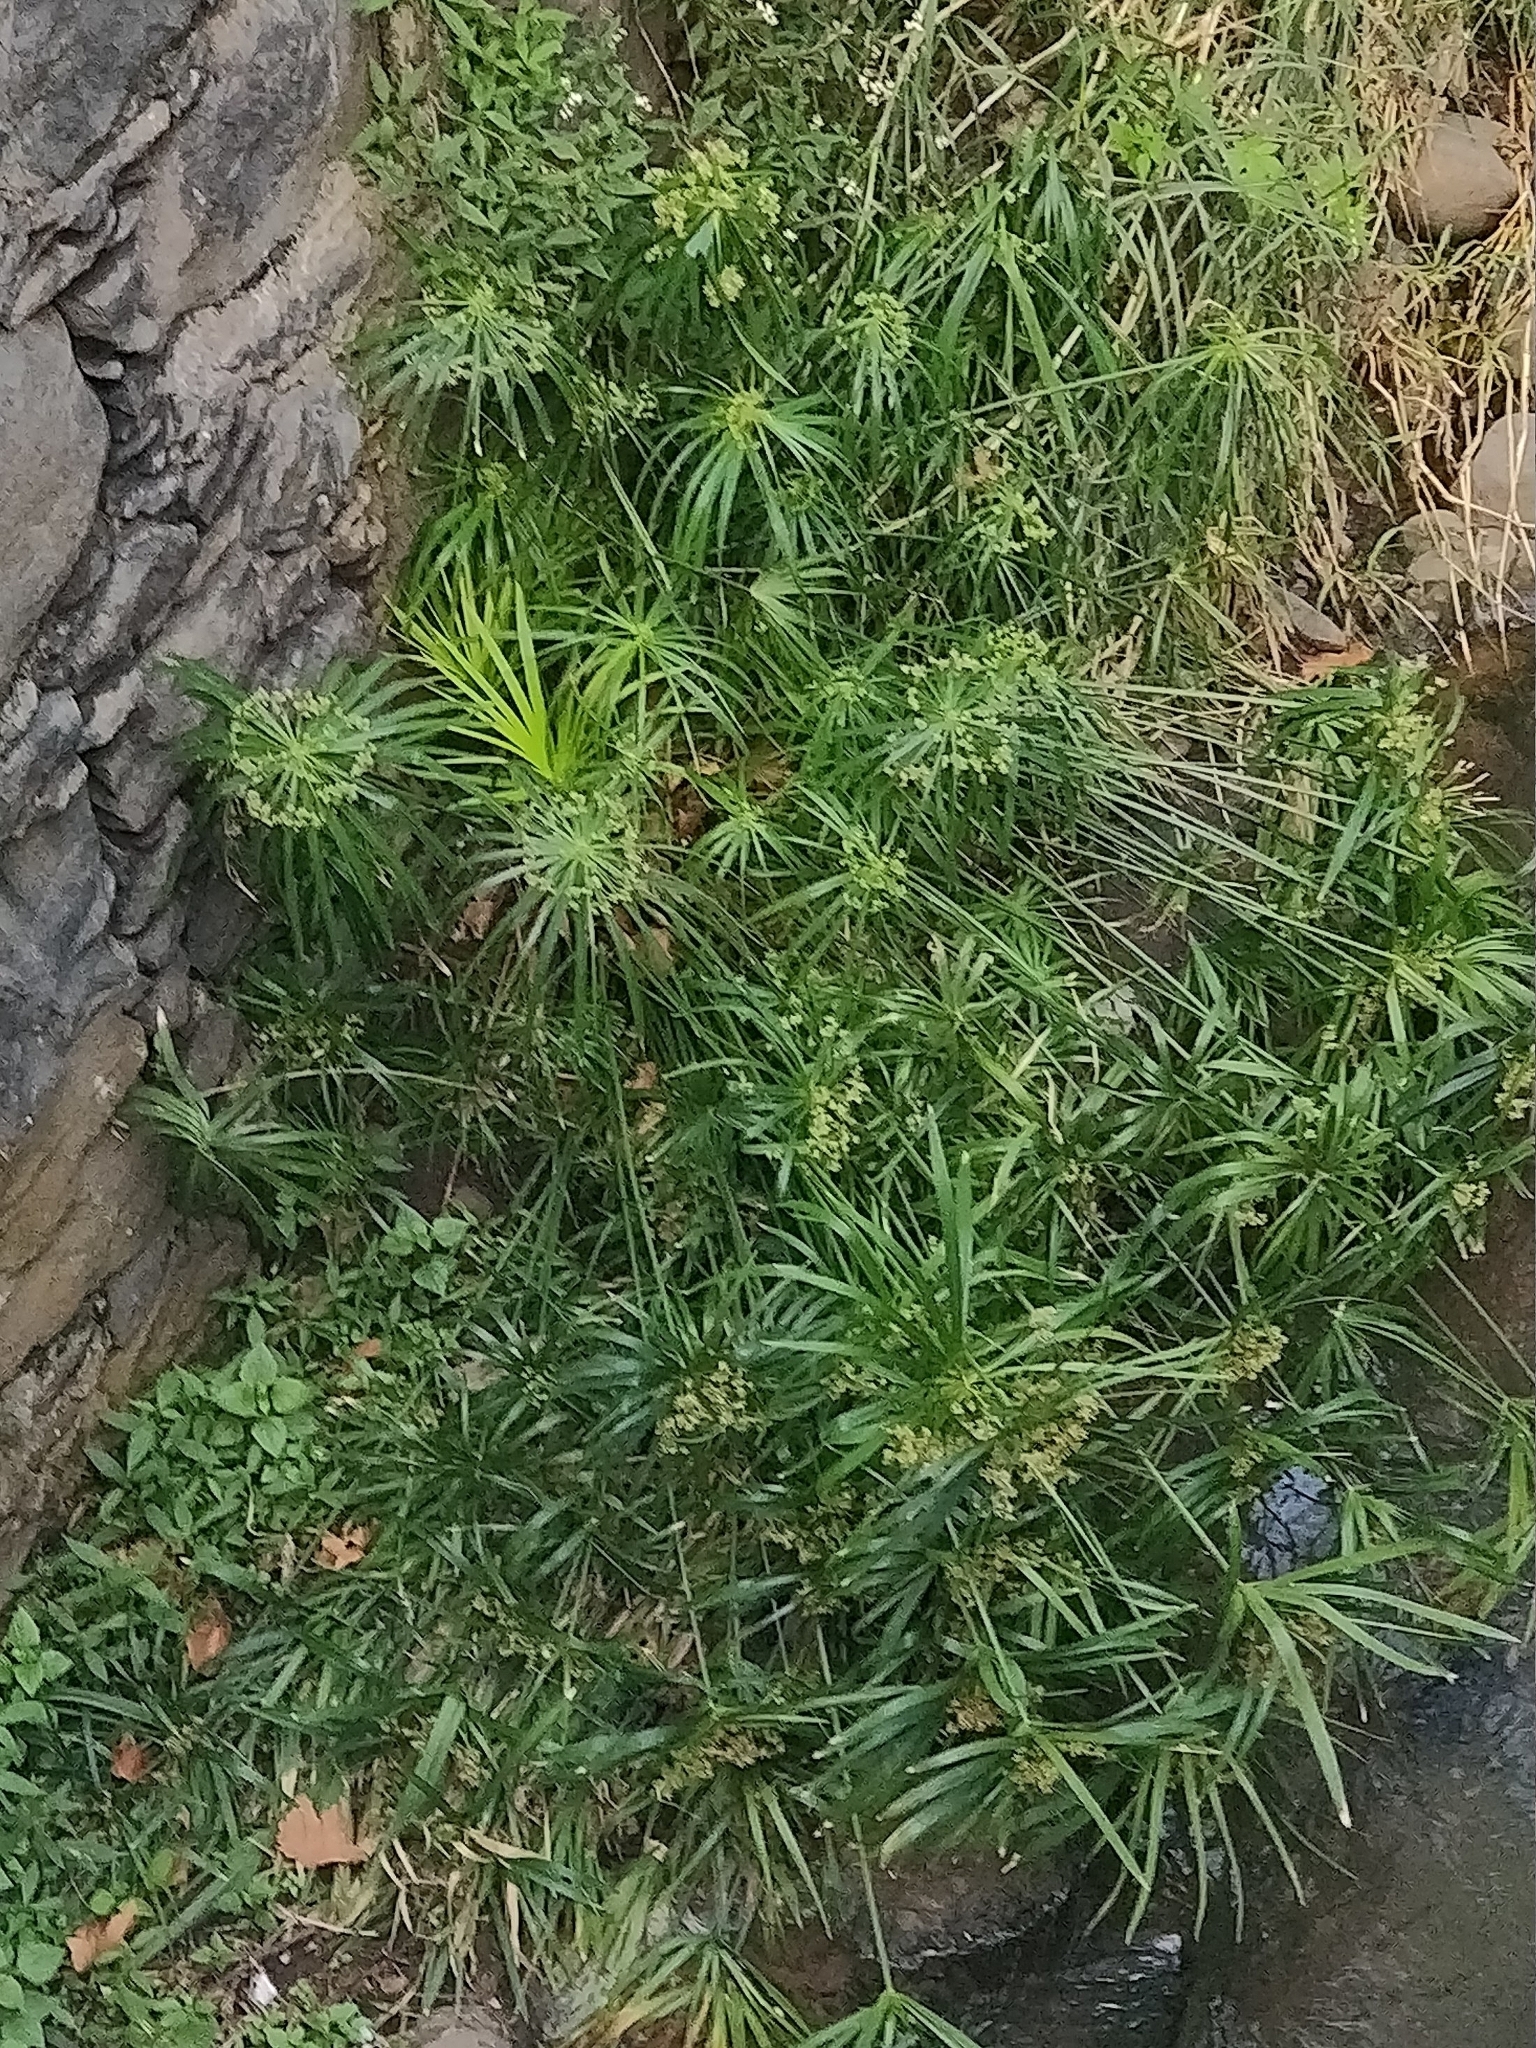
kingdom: Plantae
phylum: Tracheophyta
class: Liliopsida
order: Poales
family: Cyperaceae
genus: Cyperus
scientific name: Cyperus alternifolius
